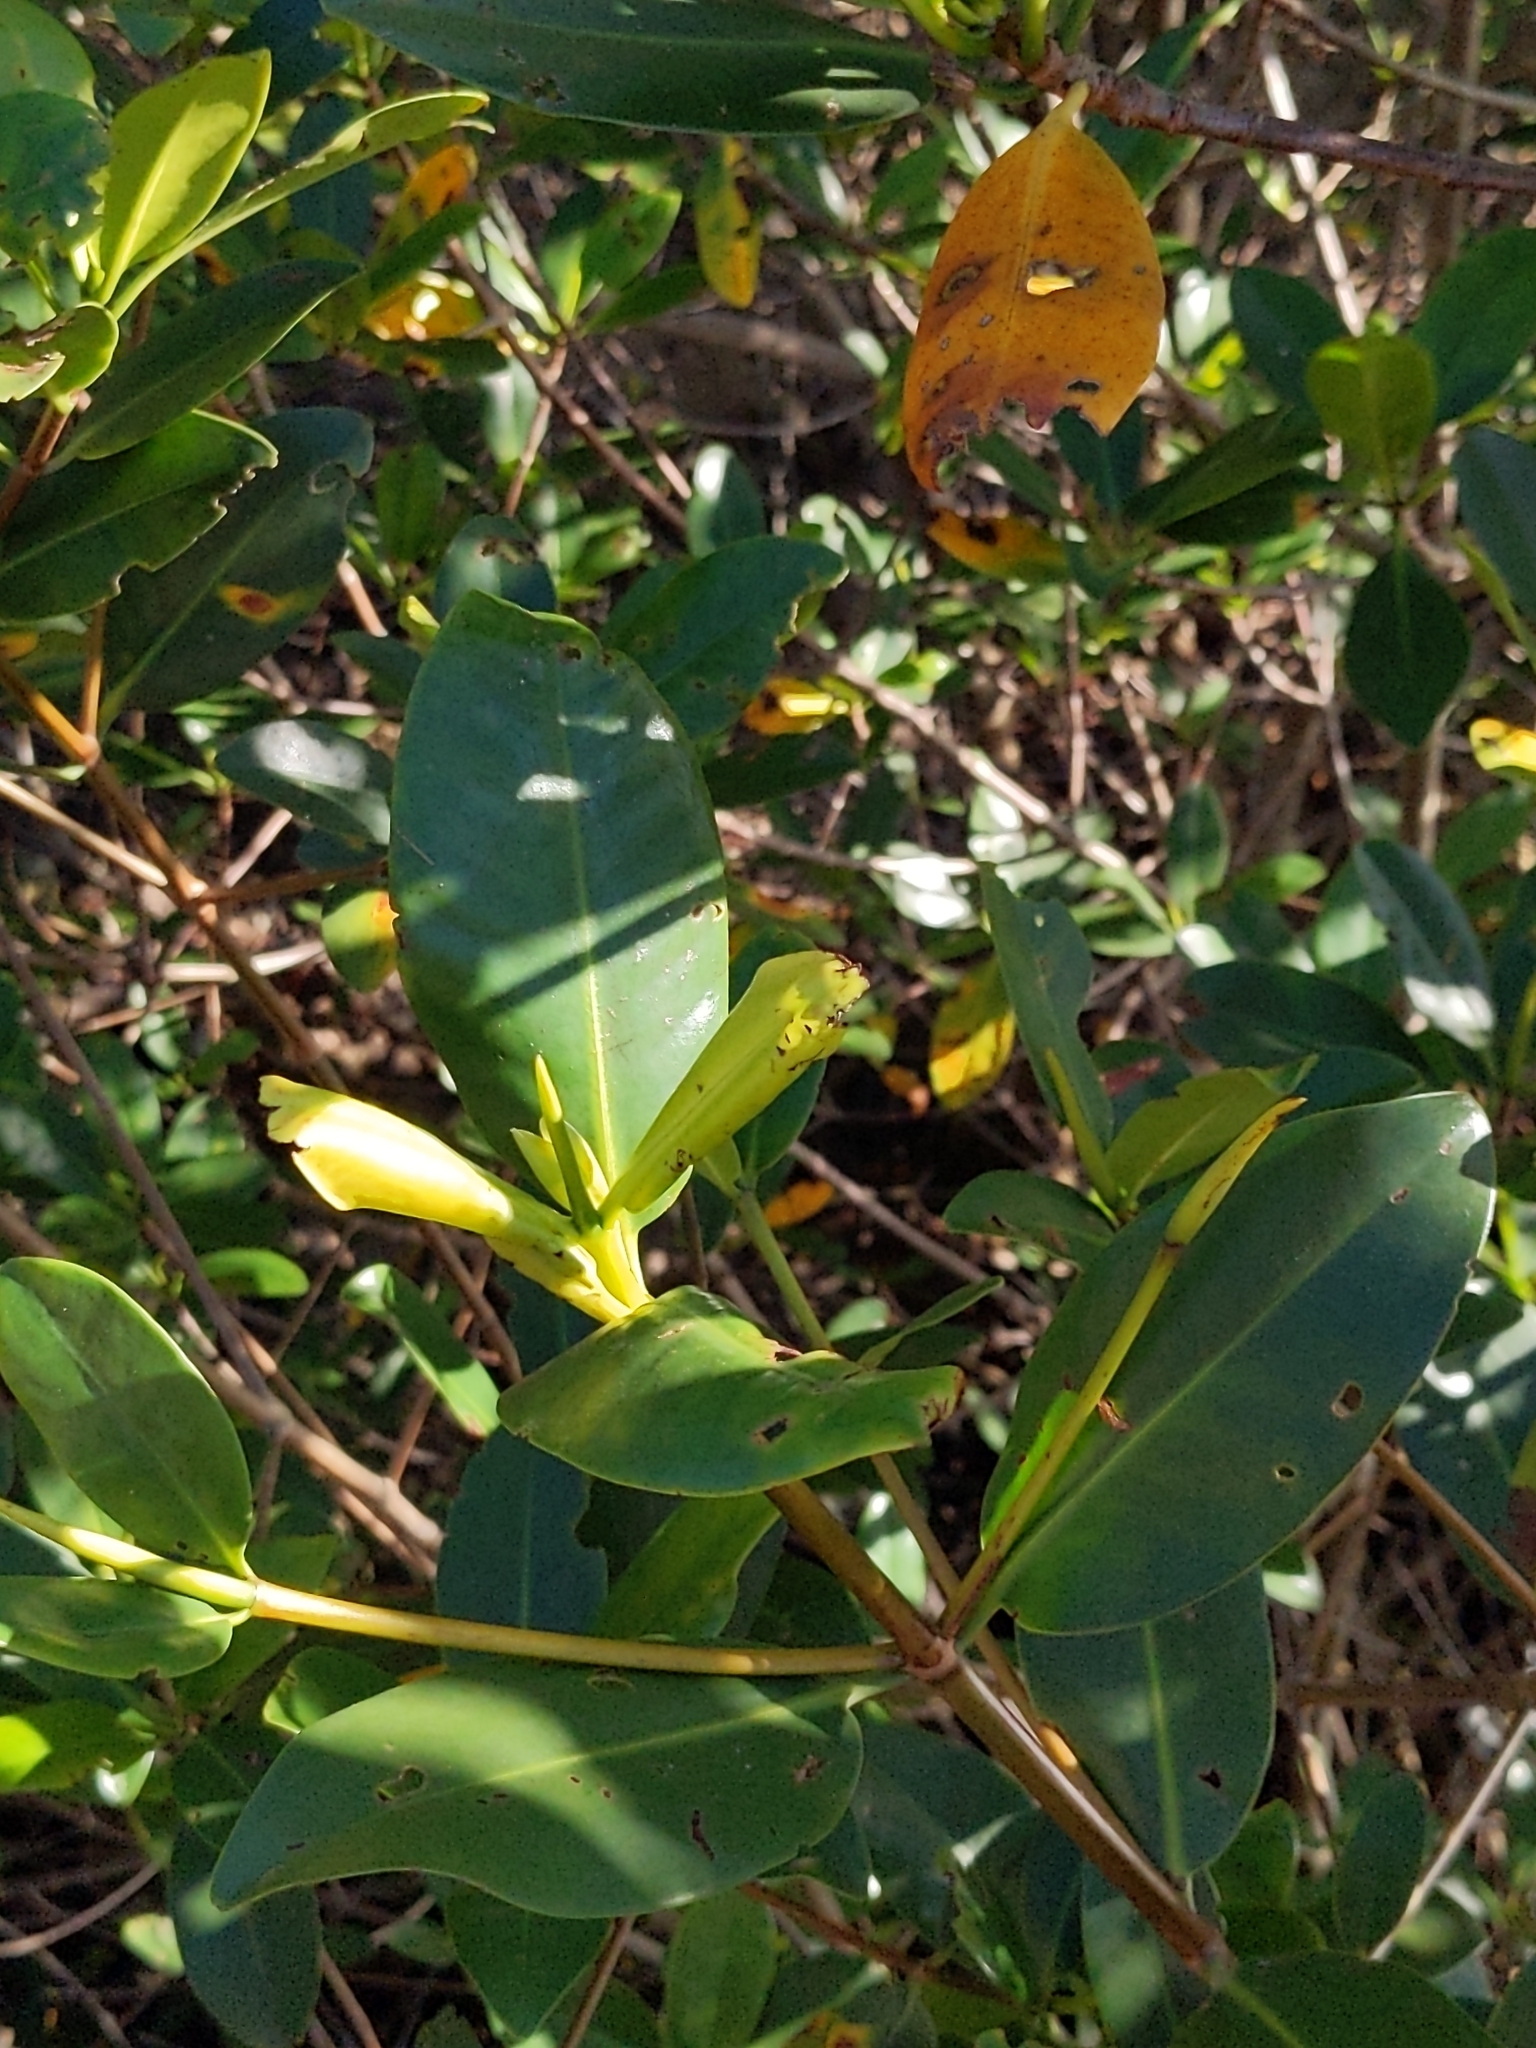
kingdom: Plantae
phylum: Tracheophyta
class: Magnoliopsida
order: Malpighiales
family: Rhizophoraceae
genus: Rhizophora
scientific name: Rhizophora mangle
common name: Red mangrove
